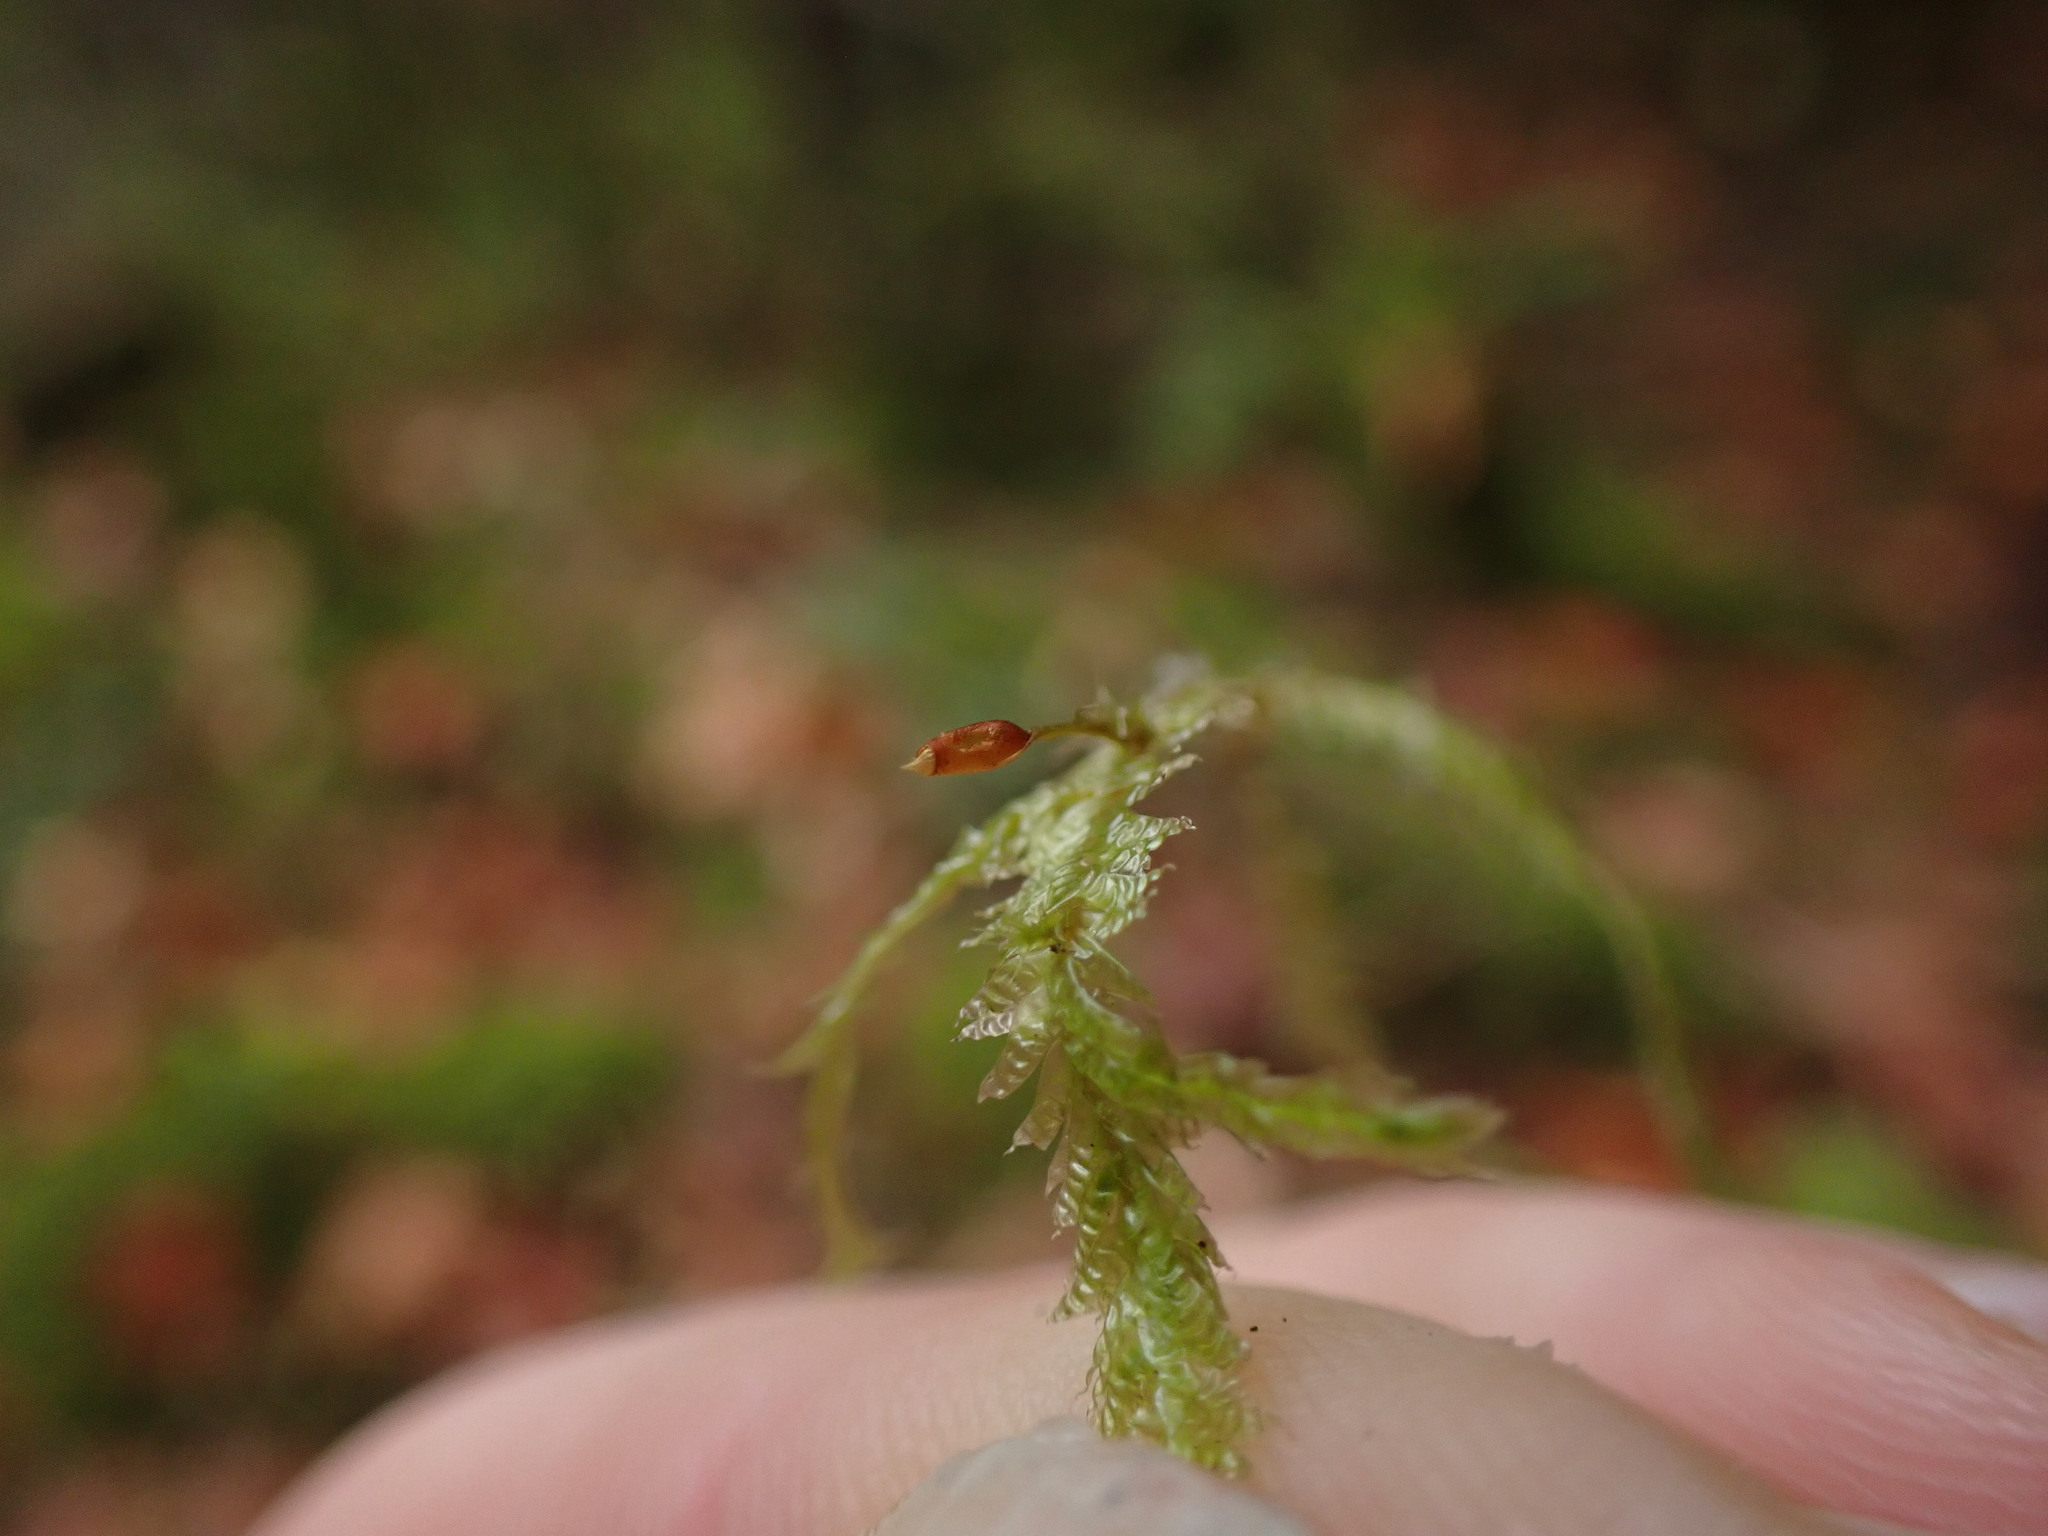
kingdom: Plantae
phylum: Bryophyta
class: Bryopsida
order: Hypnales
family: Neckeraceae
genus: Neckera
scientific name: Neckera douglasii
